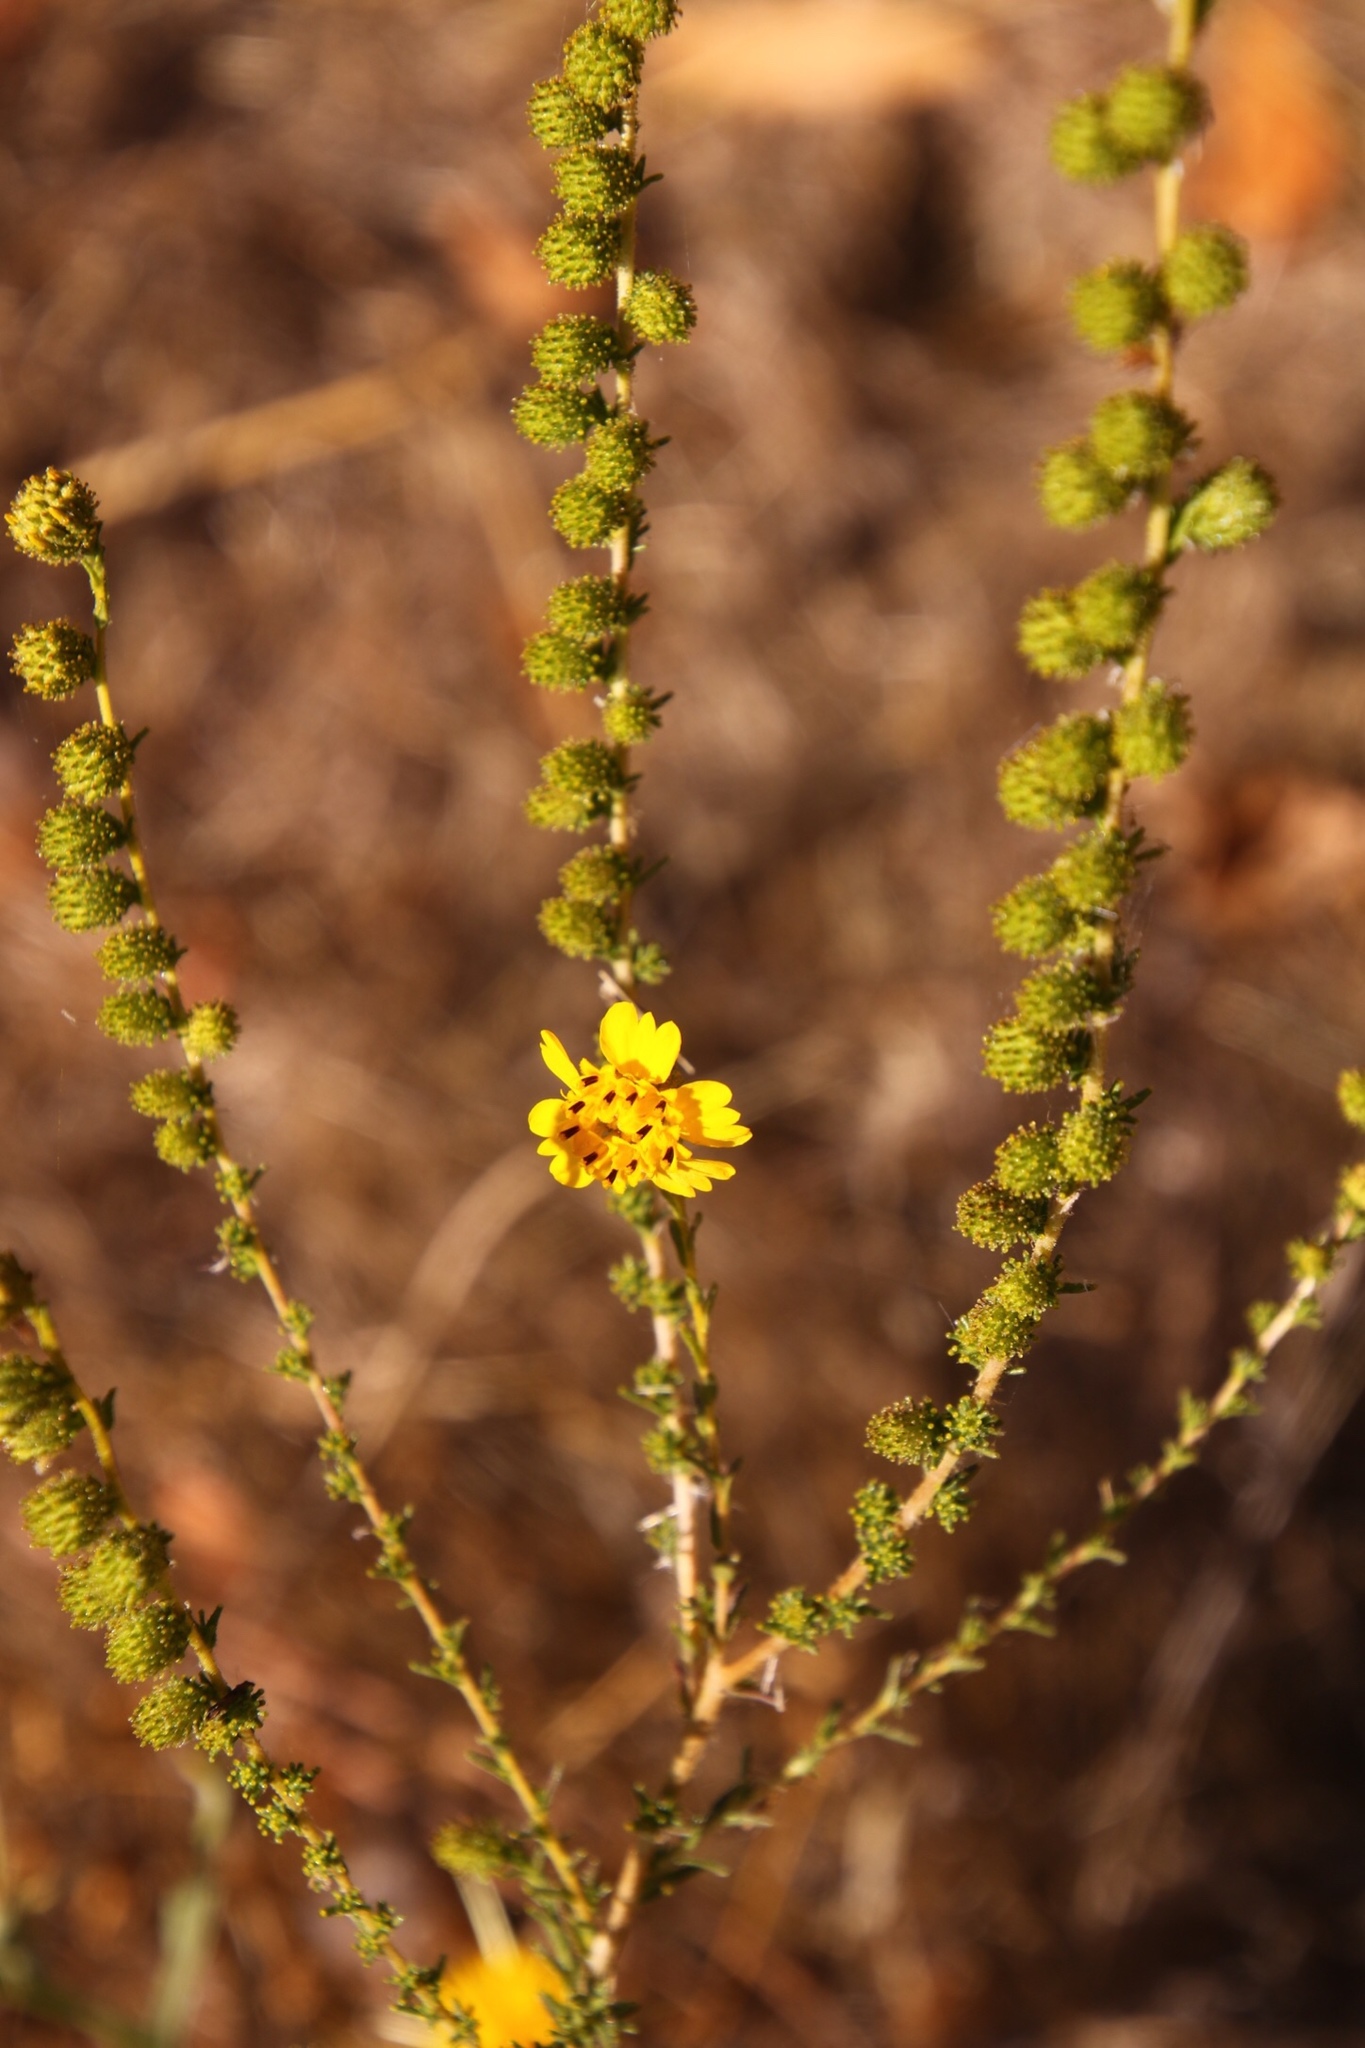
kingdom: Plantae
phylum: Tracheophyta
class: Magnoliopsida
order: Asterales
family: Asteraceae
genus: Holocarpha
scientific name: Holocarpha virgata
